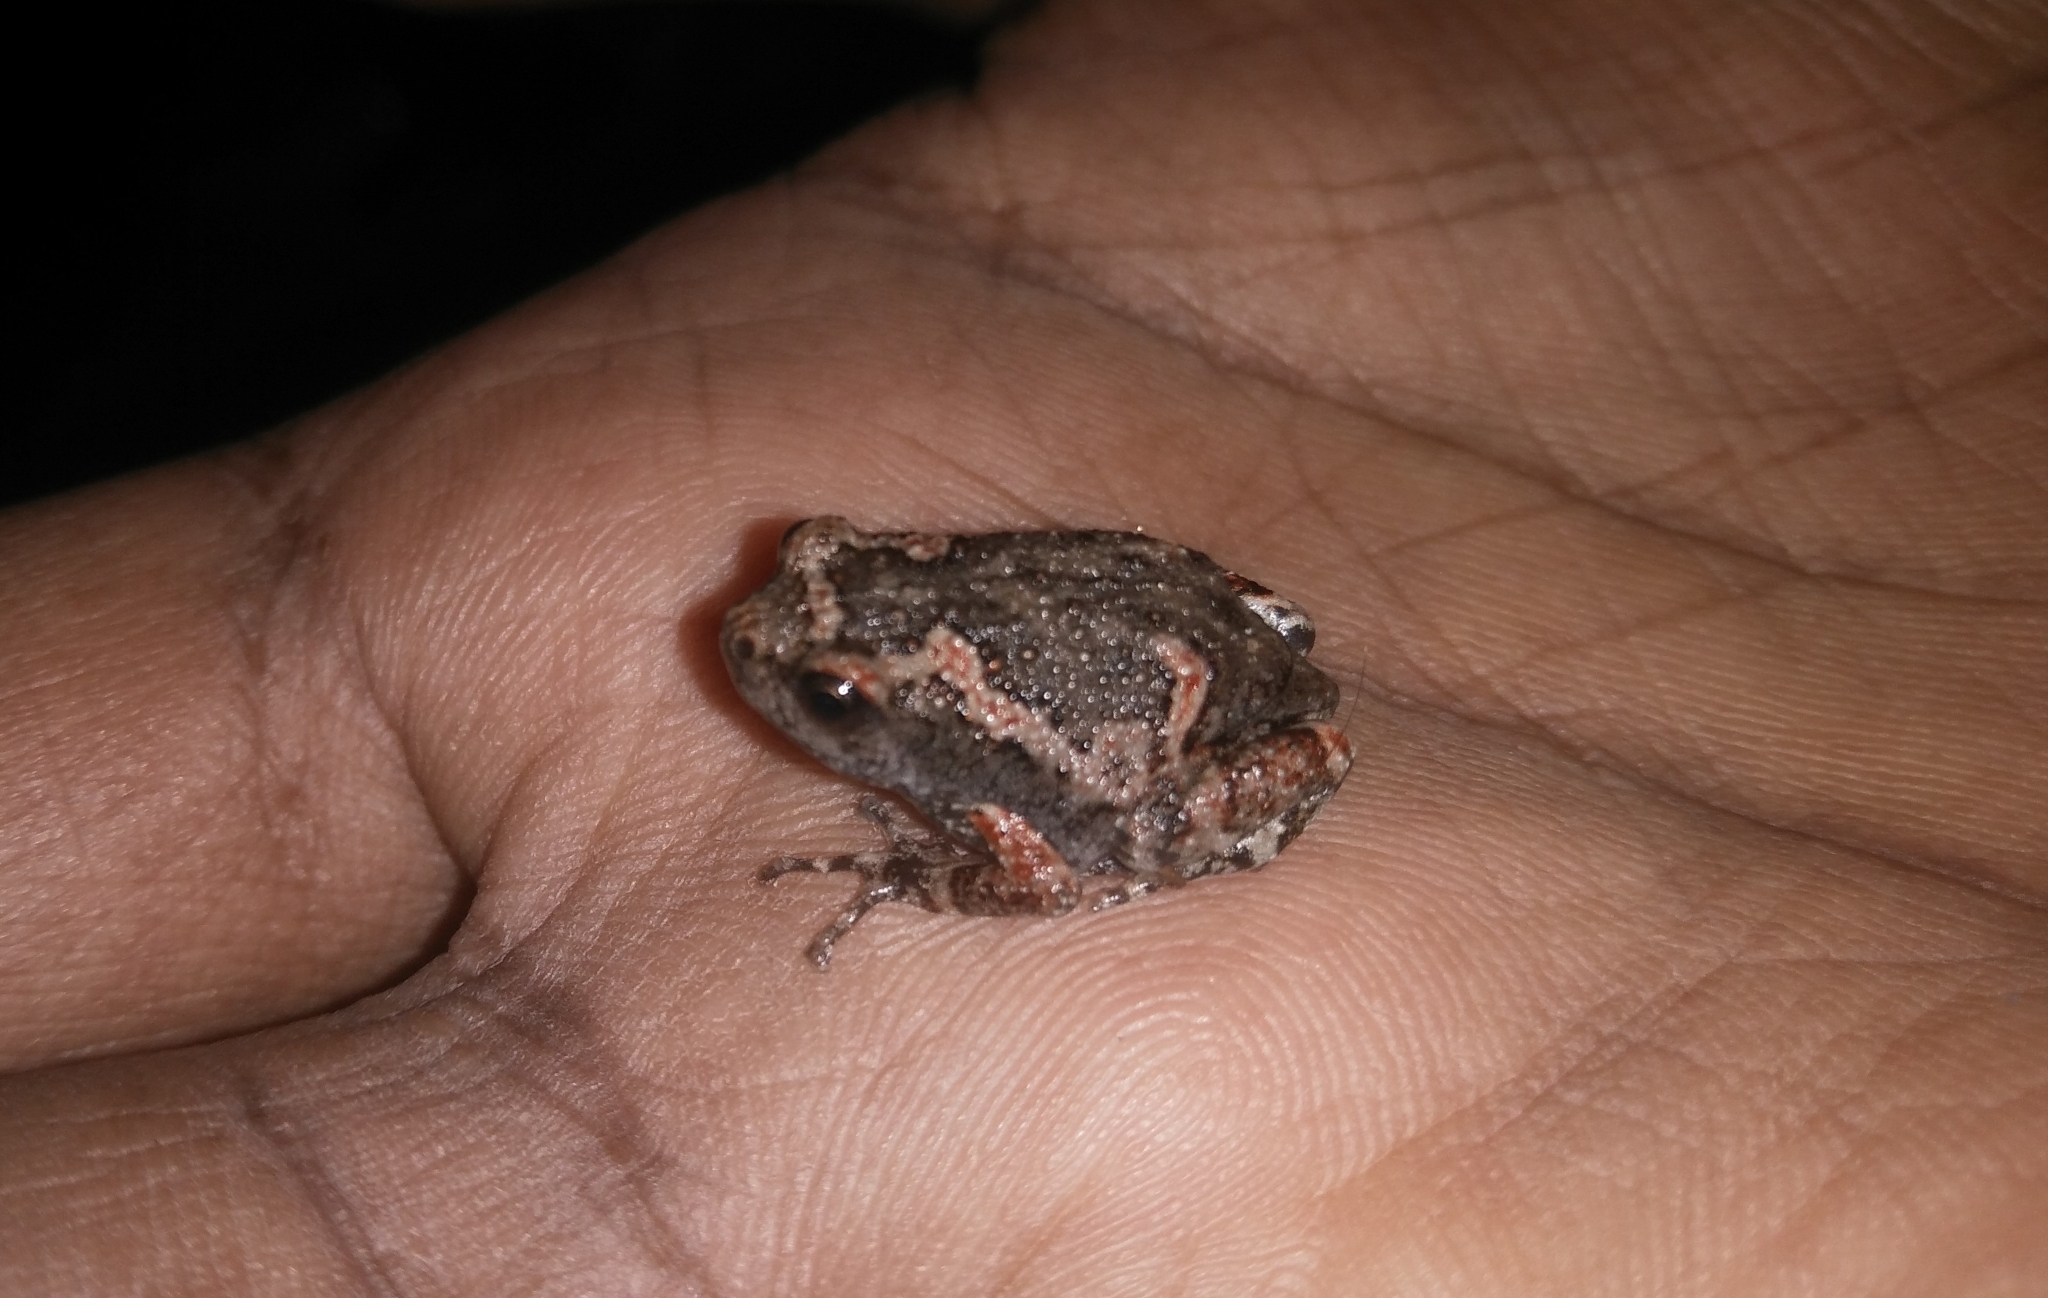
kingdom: Animalia
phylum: Chordata
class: Amphibia
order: Anura
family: Microhylidae
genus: Uperodon
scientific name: Uperodon taprobanicus
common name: Ceylon kaloula
